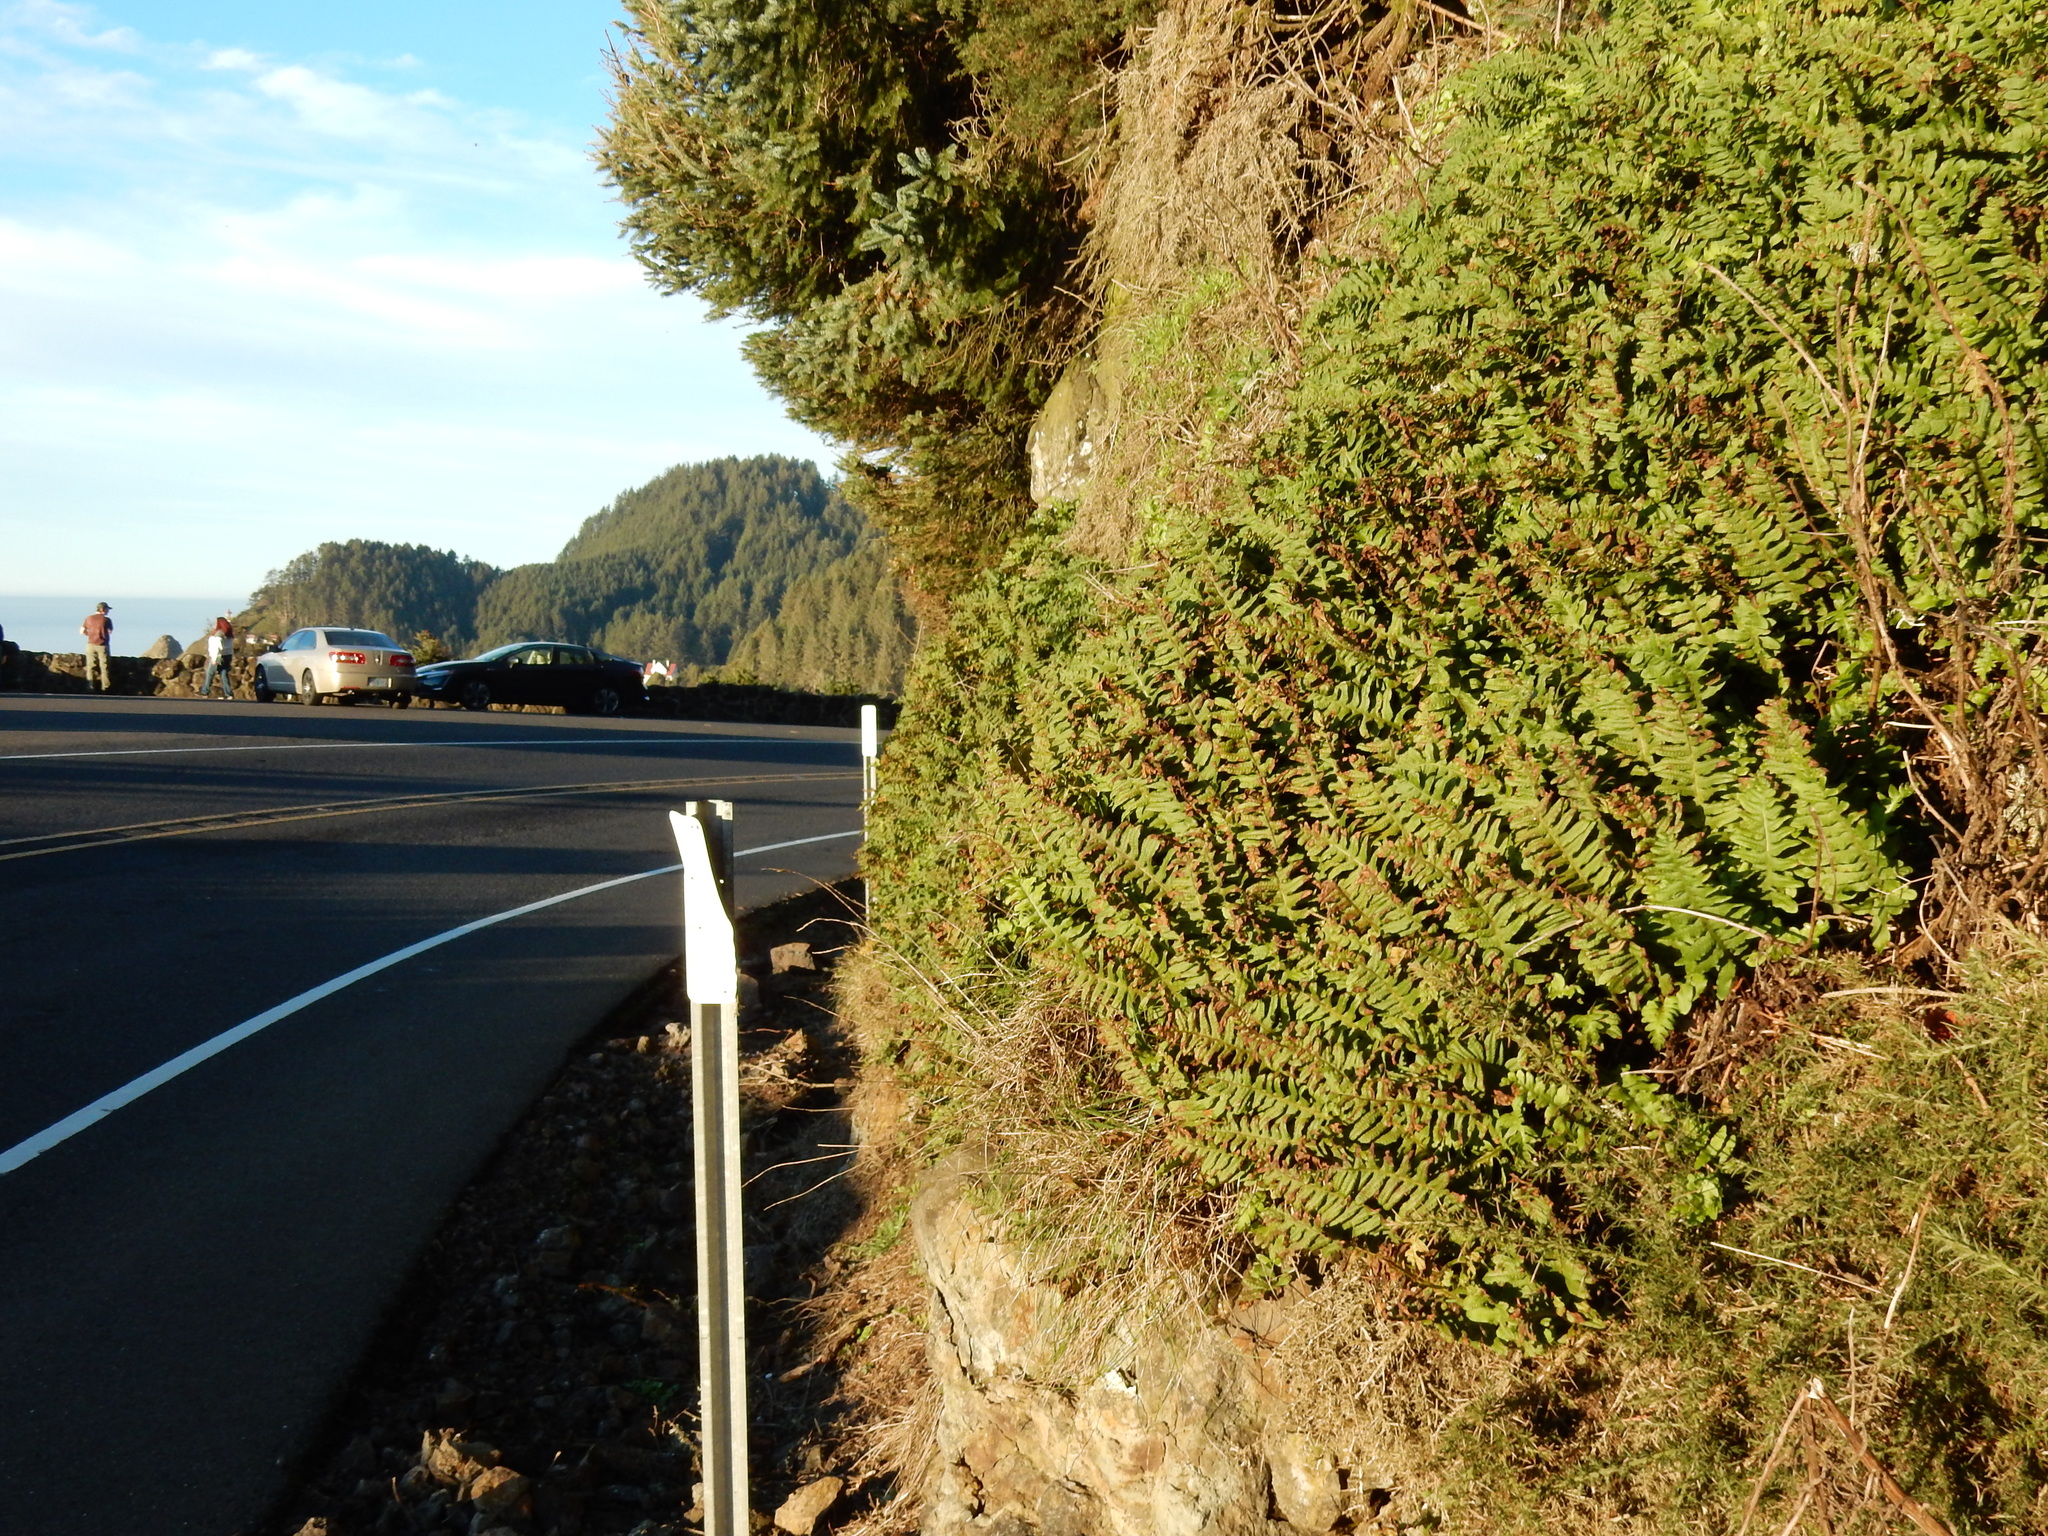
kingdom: Plantae
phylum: Tracheophyta
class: Polypodiopsida
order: Polypodiales
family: Polypodiaceae
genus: Polypodium
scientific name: Polypodium calirhiza
